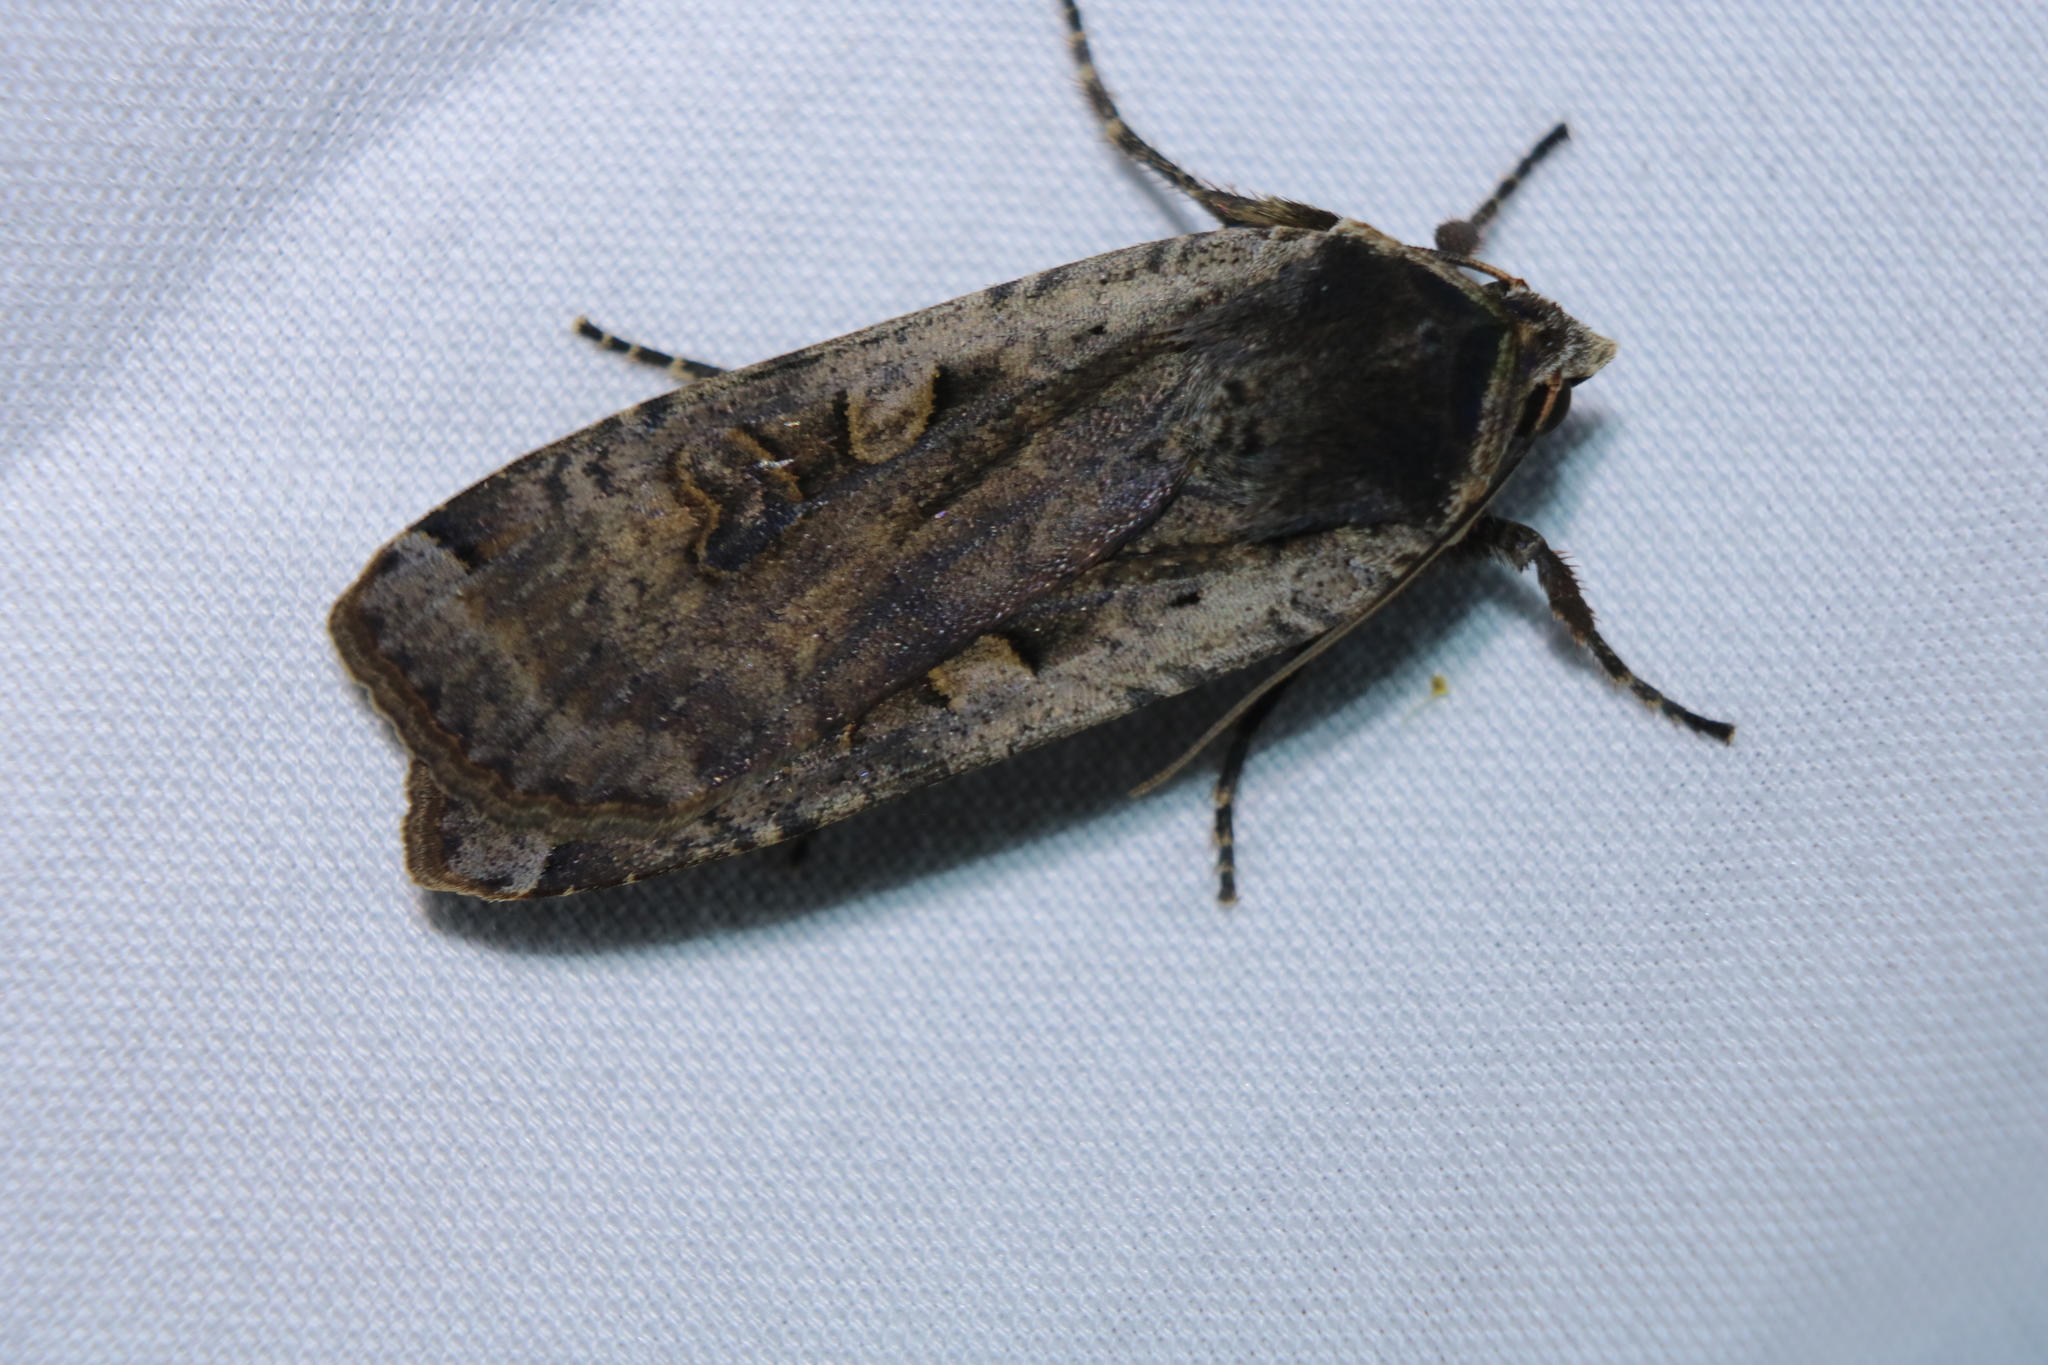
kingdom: Animalia
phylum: Arthropoda
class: Insecta
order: Lepidoptera
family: Noctuidae
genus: Noctua
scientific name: Noctua pronuba
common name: Large yellow underwing
